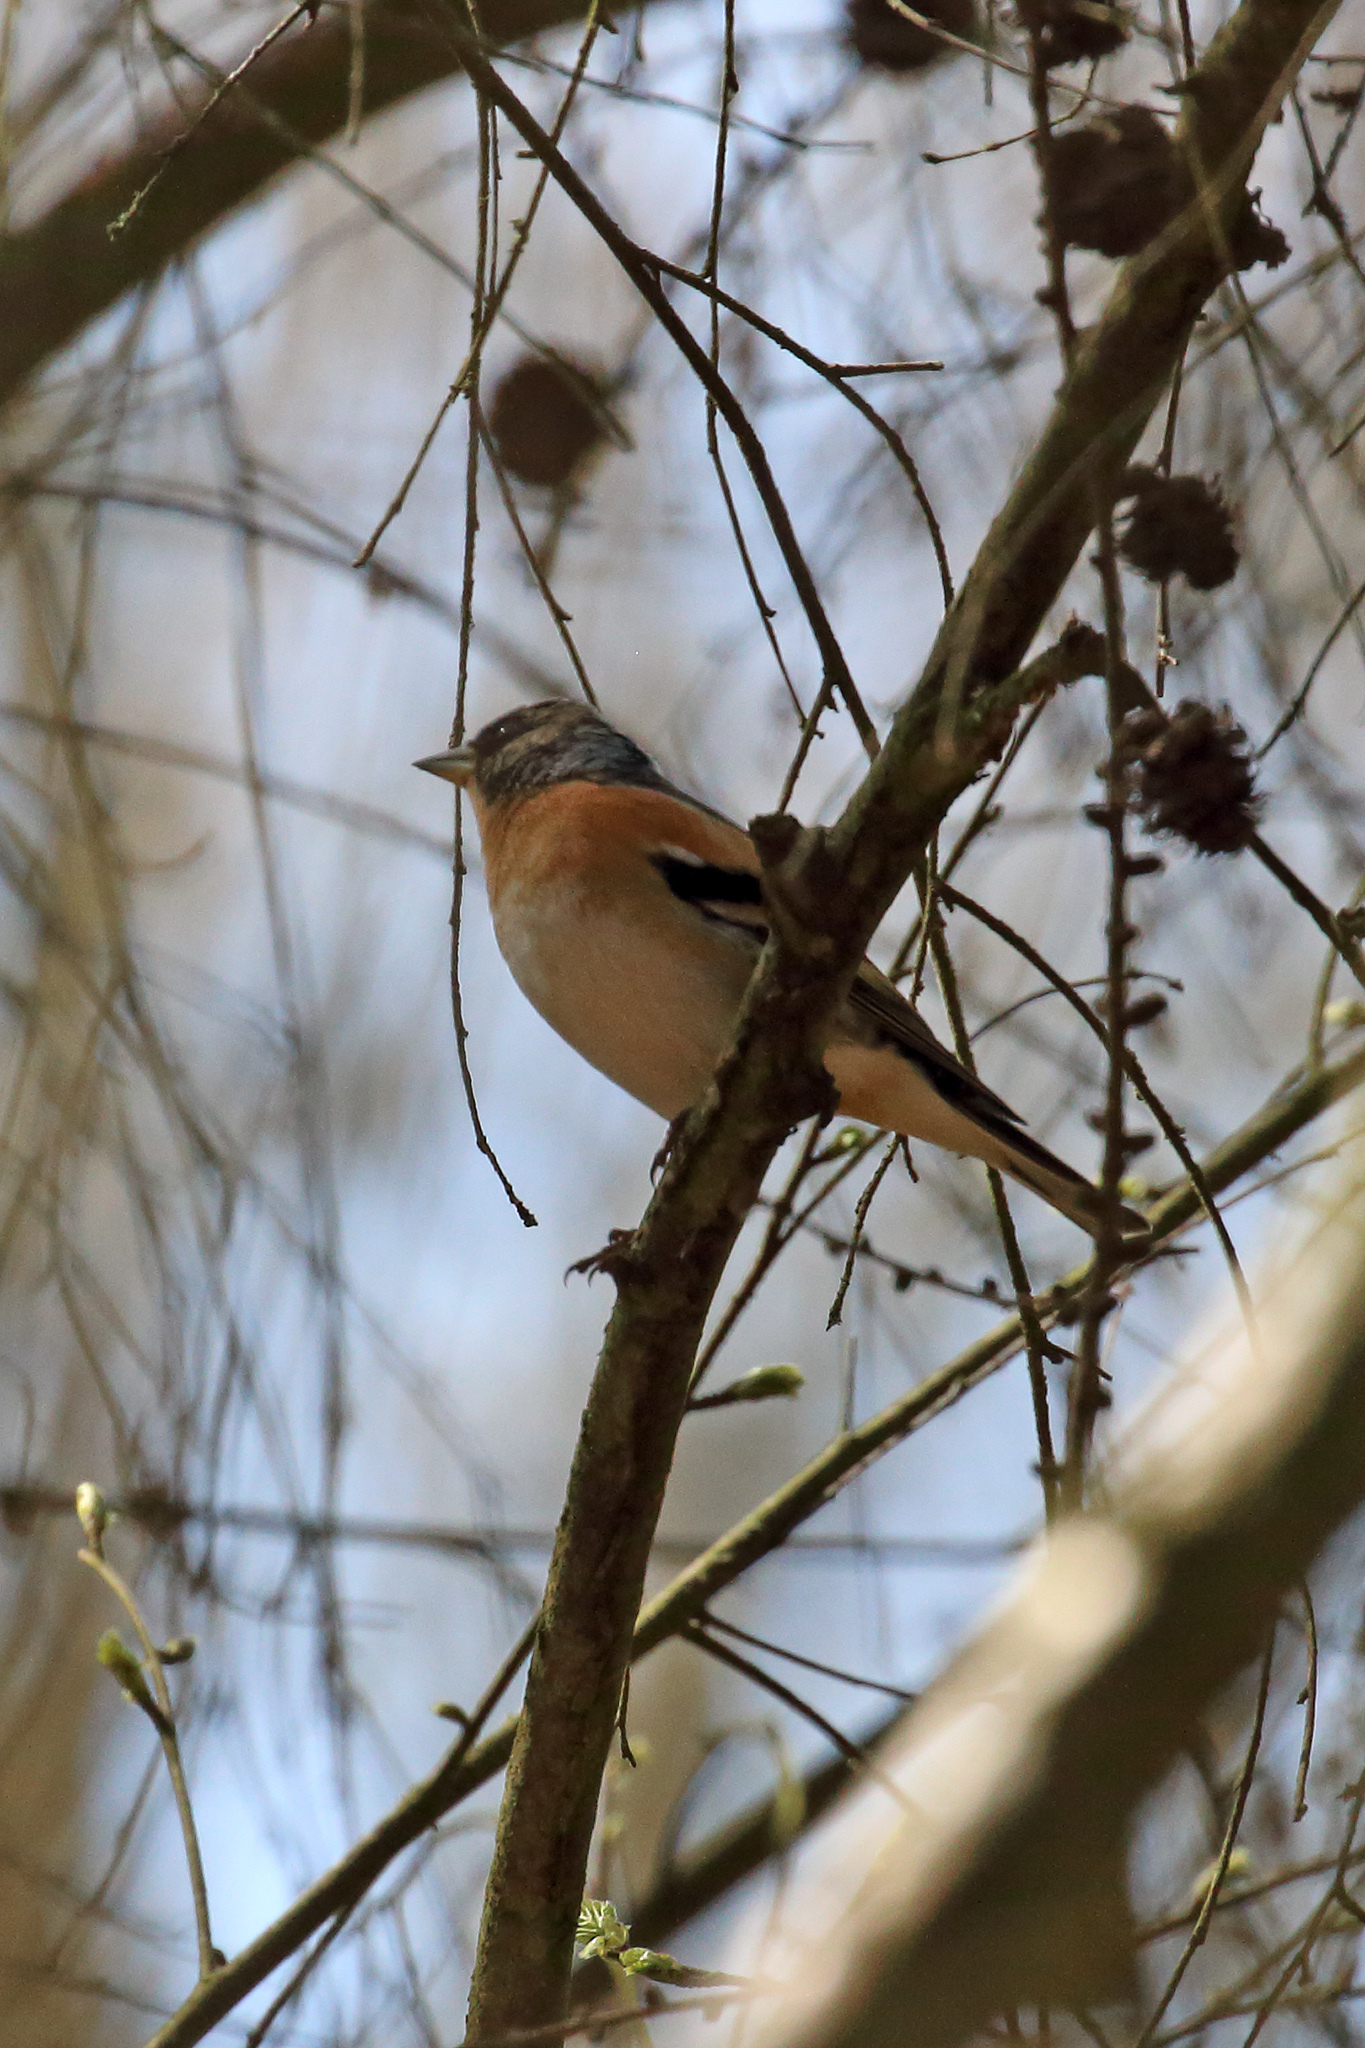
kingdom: Animalia
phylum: Chordata
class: Aves
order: Passeriformes
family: Fringillidae
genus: Fringilla
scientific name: Fringilla montifringilla
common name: Brambling
